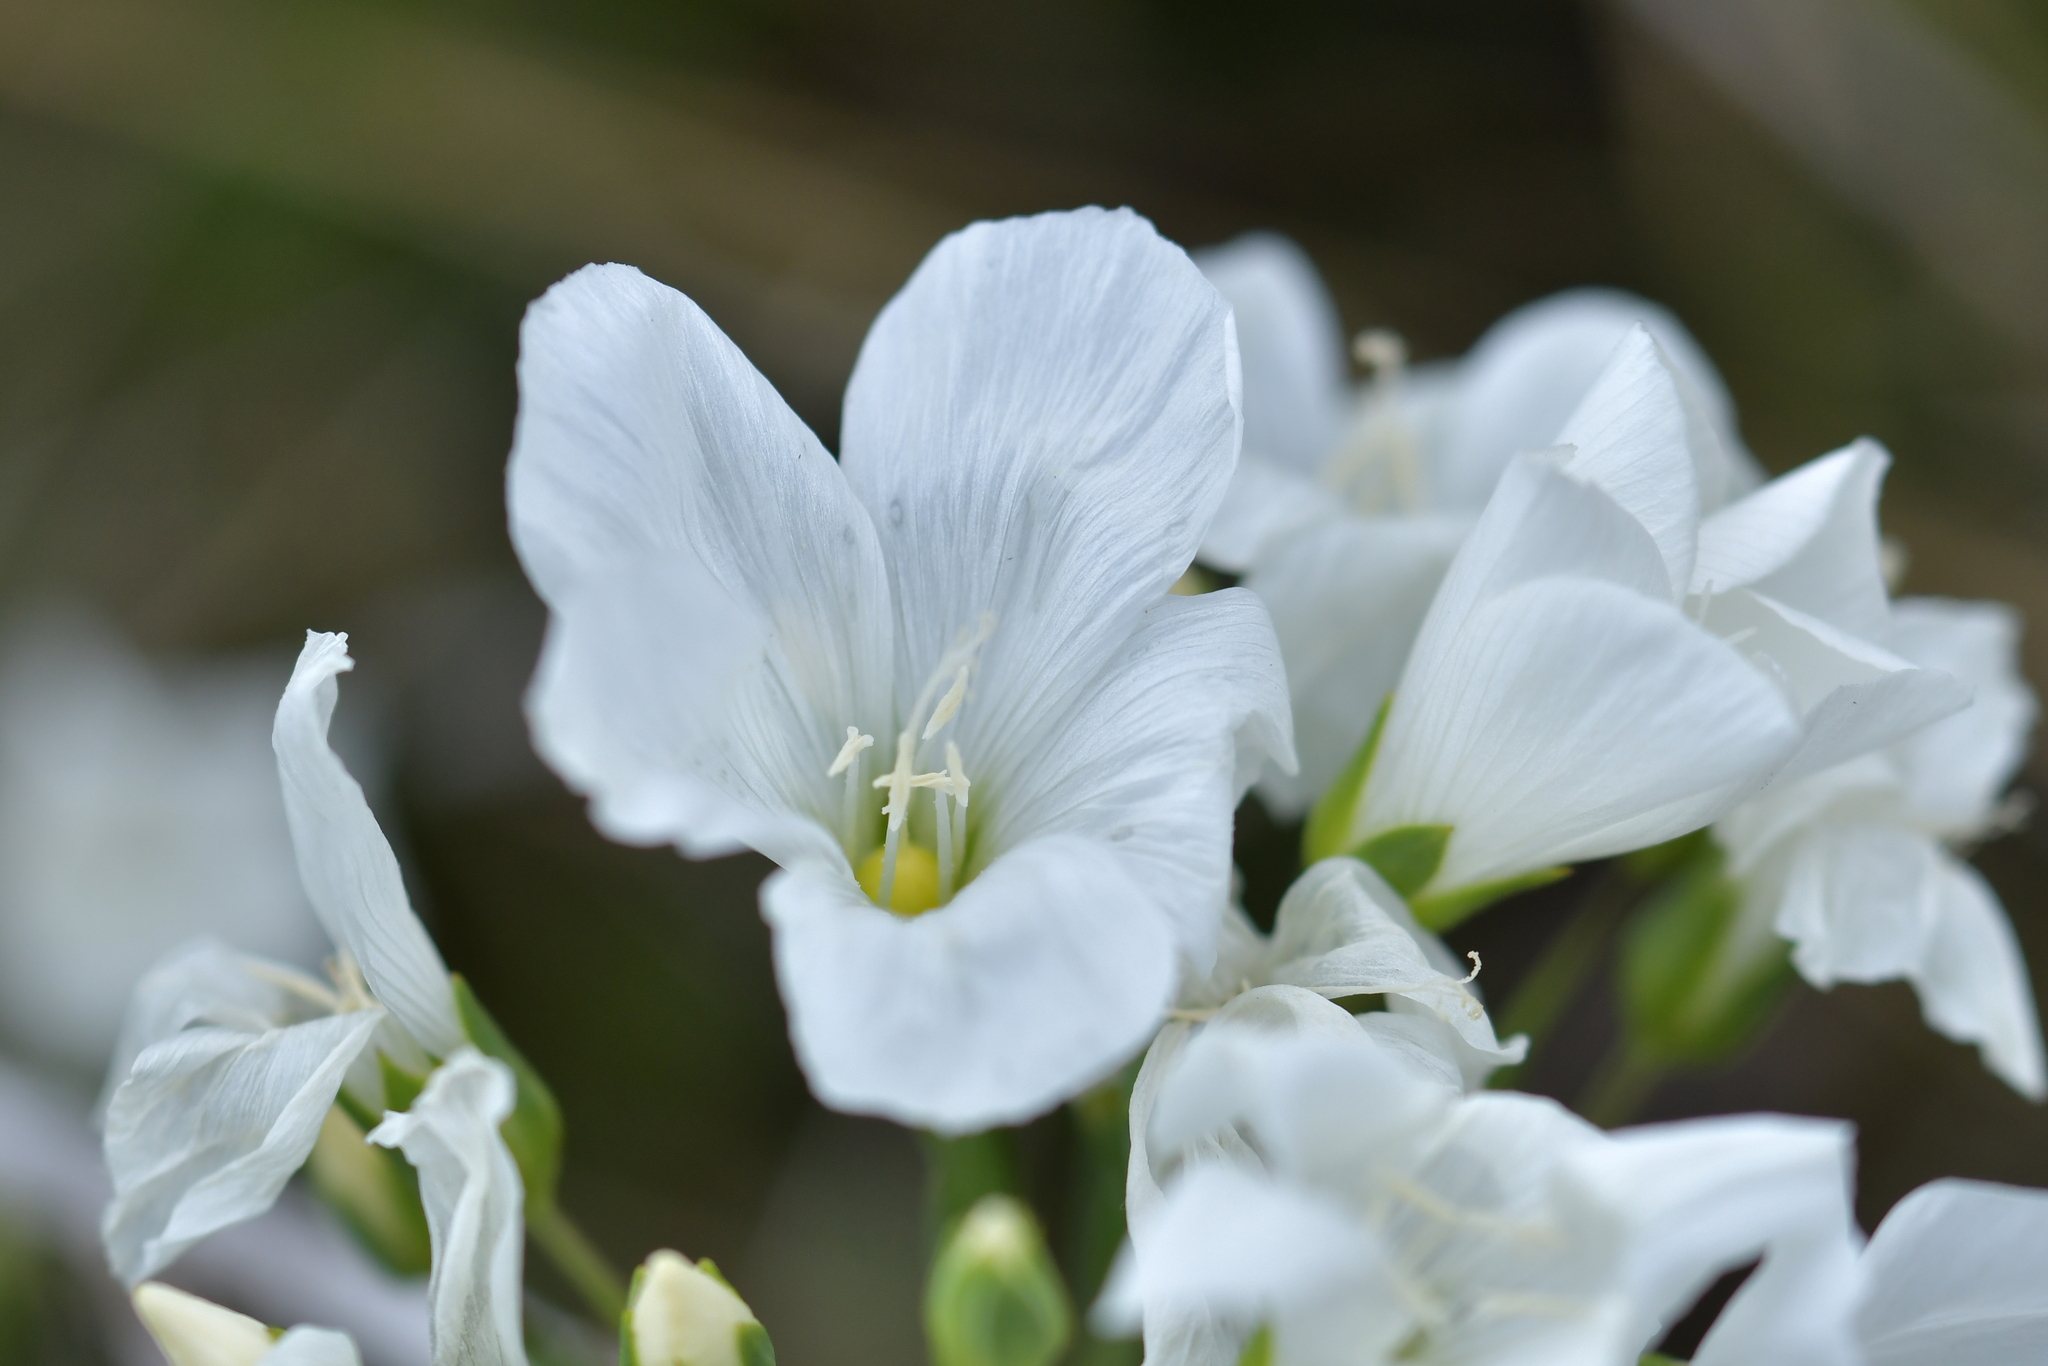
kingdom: Plantae
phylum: Tracheophyta
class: Magnoliopsida
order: Malpighiales
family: Linaceae
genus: Linum
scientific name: Linum monogynum
